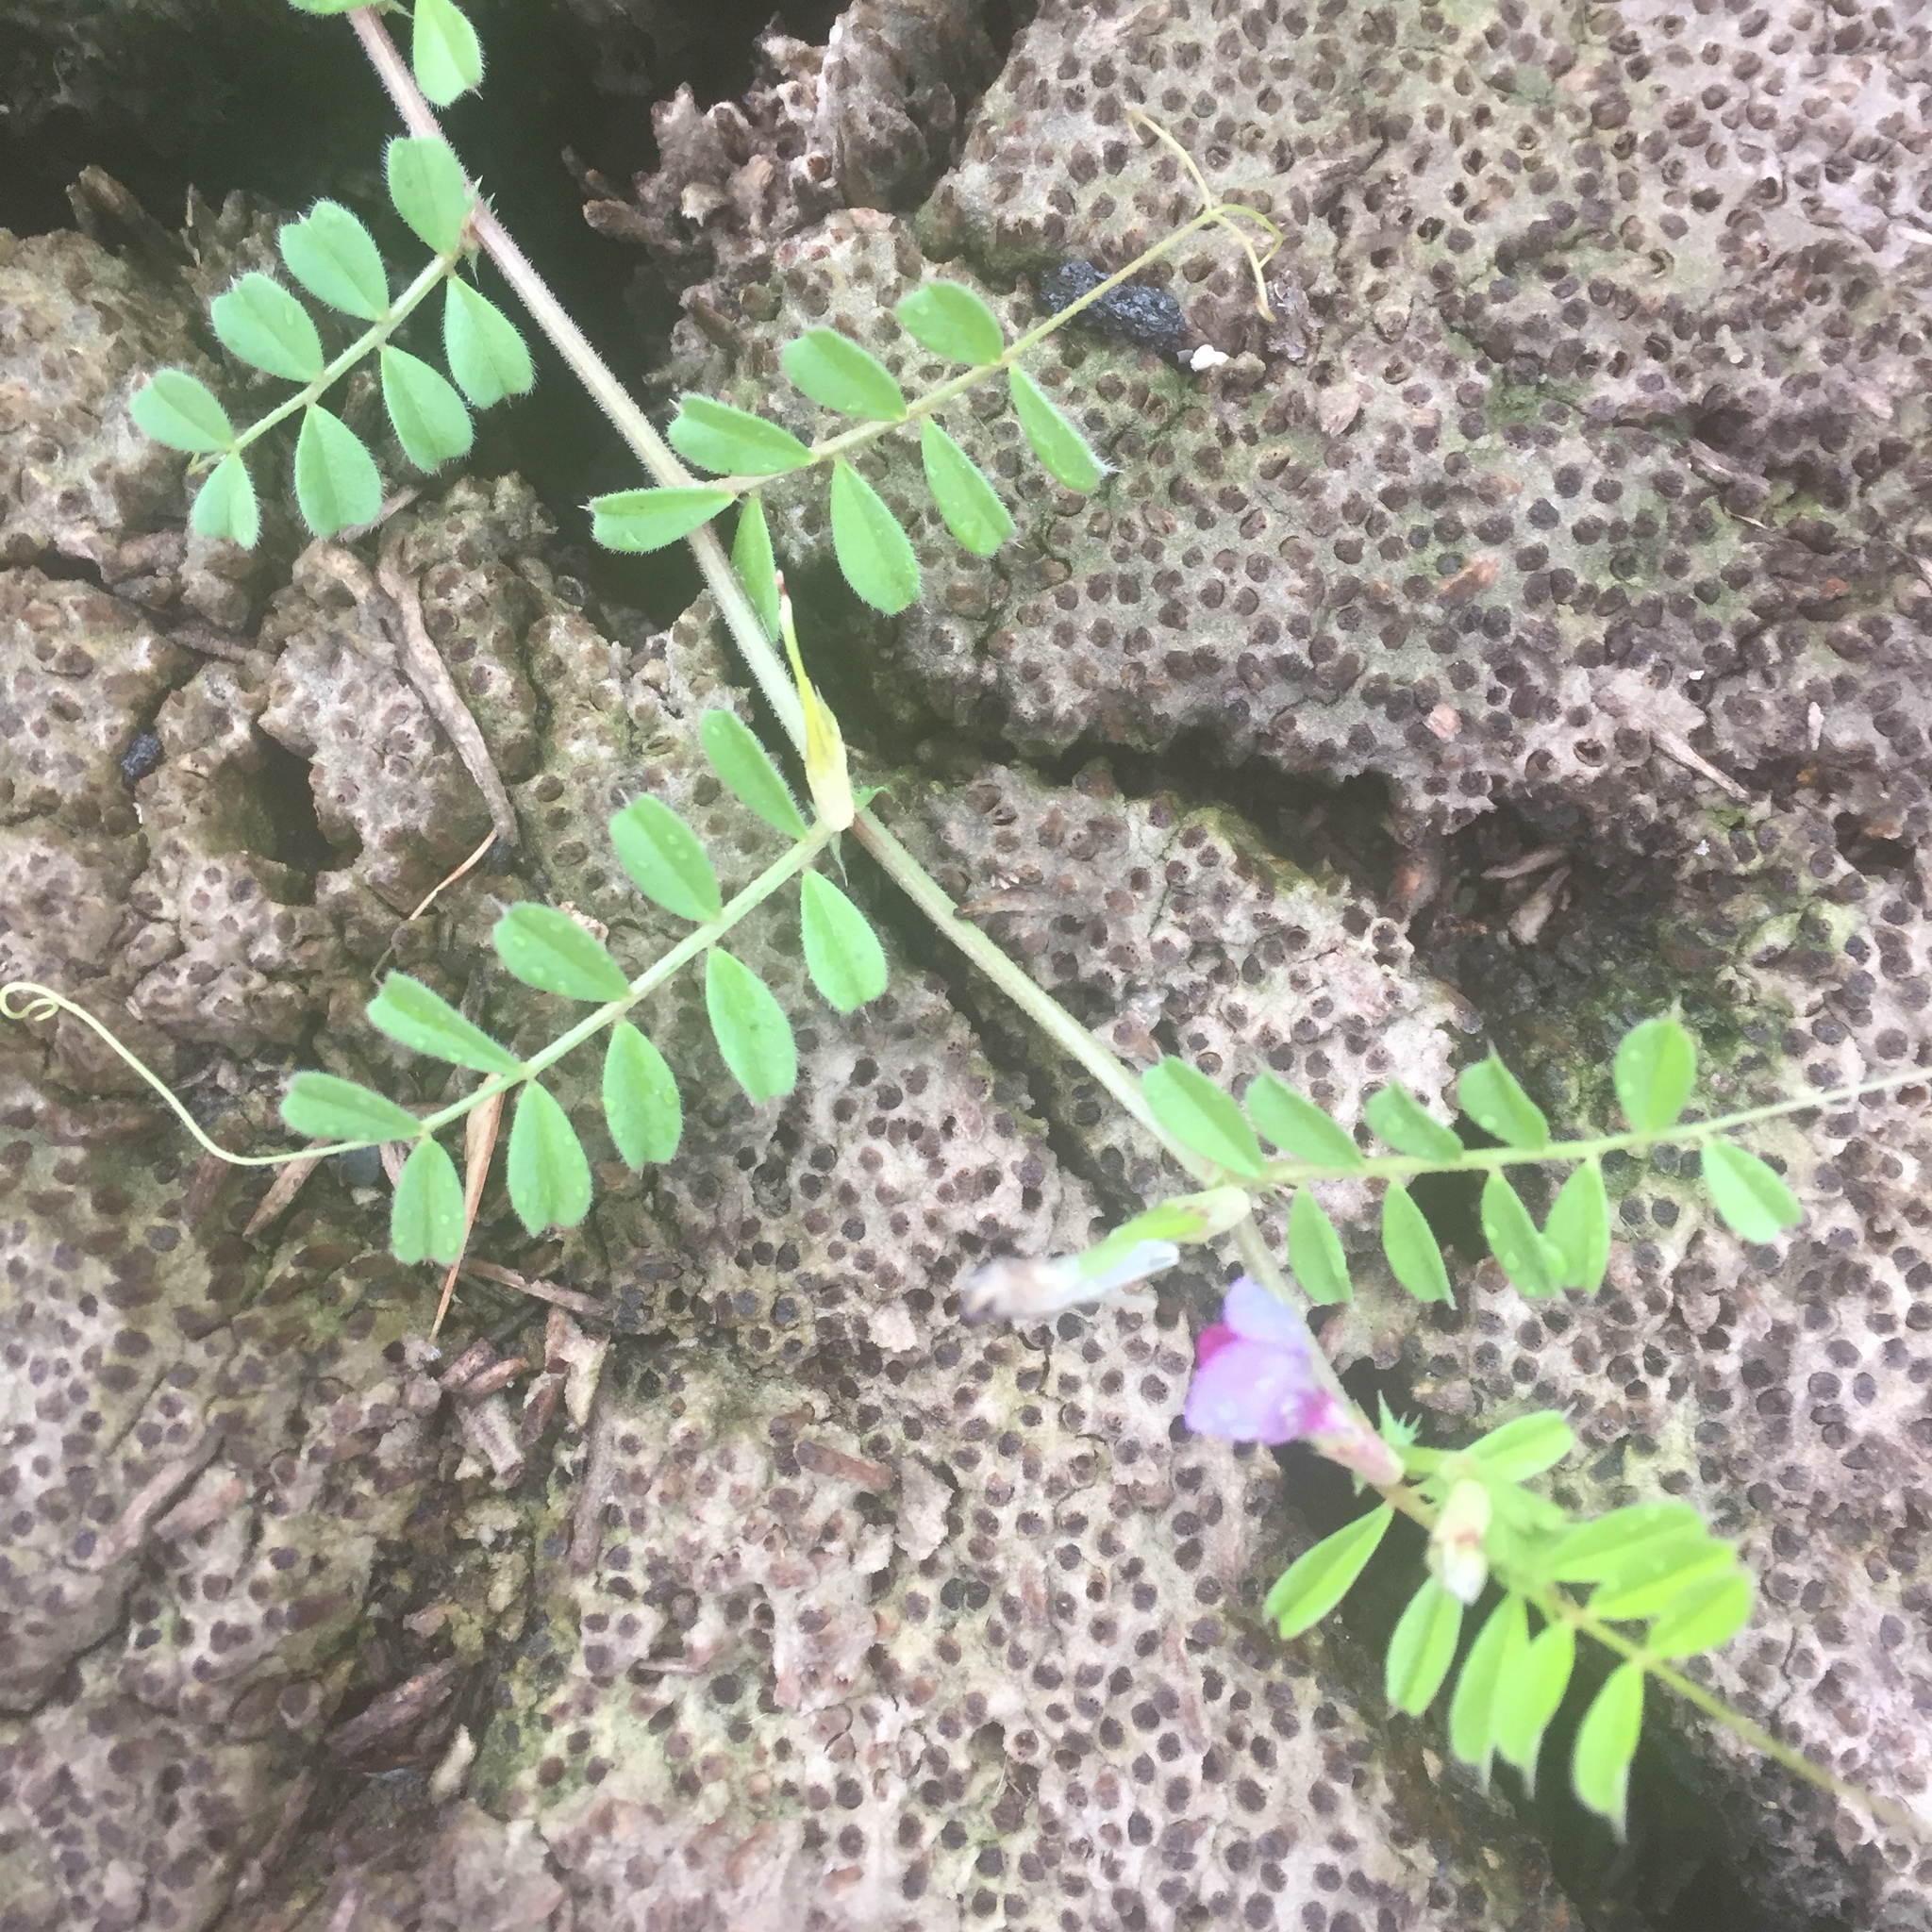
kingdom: Plantae
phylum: Tracheophyta
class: Magnoliopsida
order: Fabales
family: Fabaceae
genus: Vicia
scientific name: Vicia sativa
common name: Garden vetch
